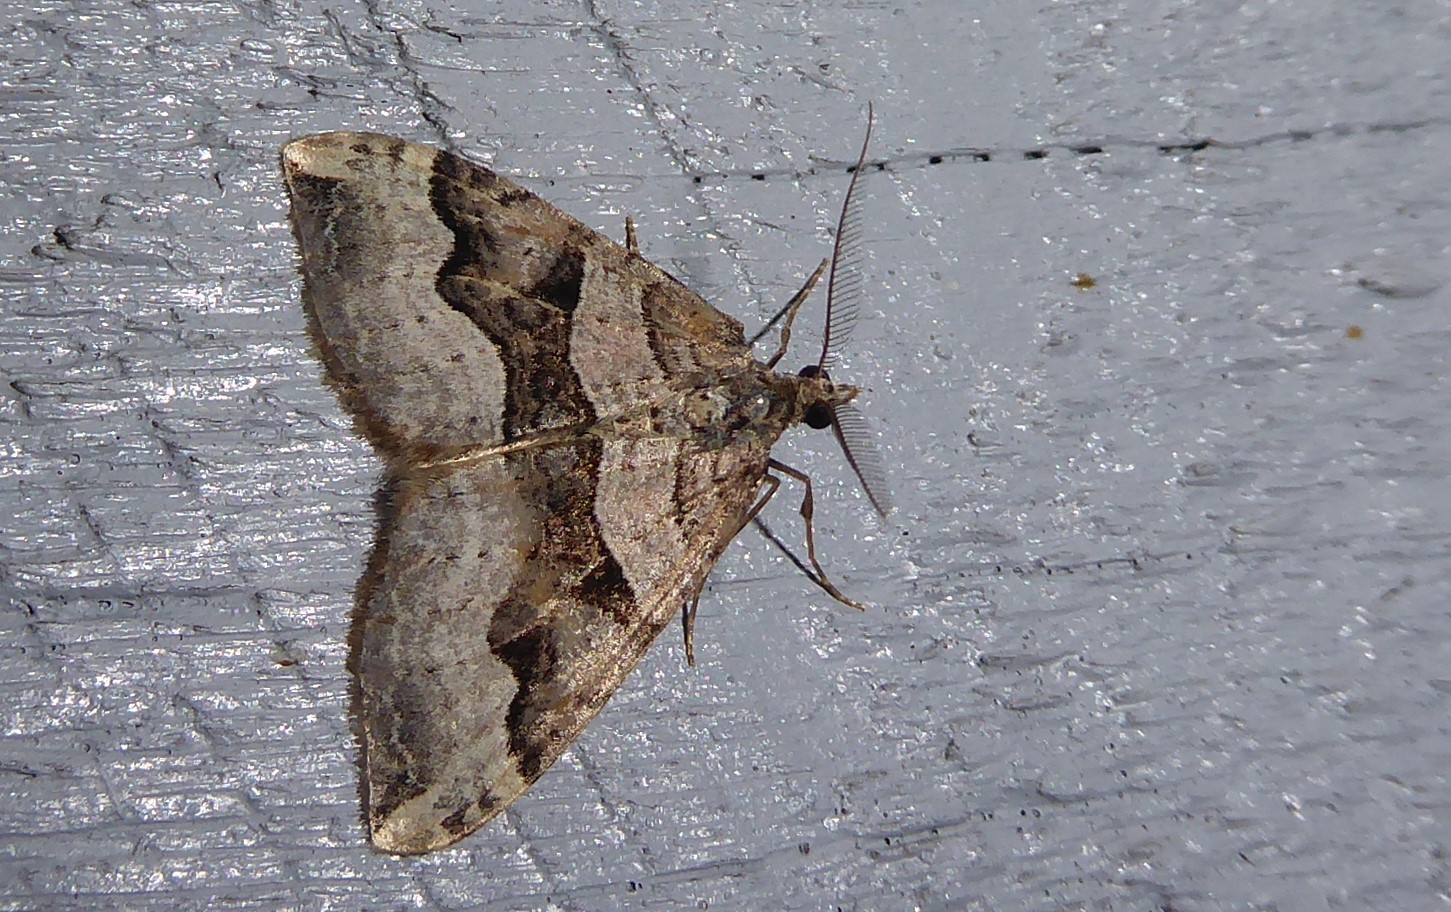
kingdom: Animalia
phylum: Arthropoda
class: Insecta
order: Lepidoptera
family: Geometridae
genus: Xanthorhoe
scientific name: Xanthorhoe semifissata
